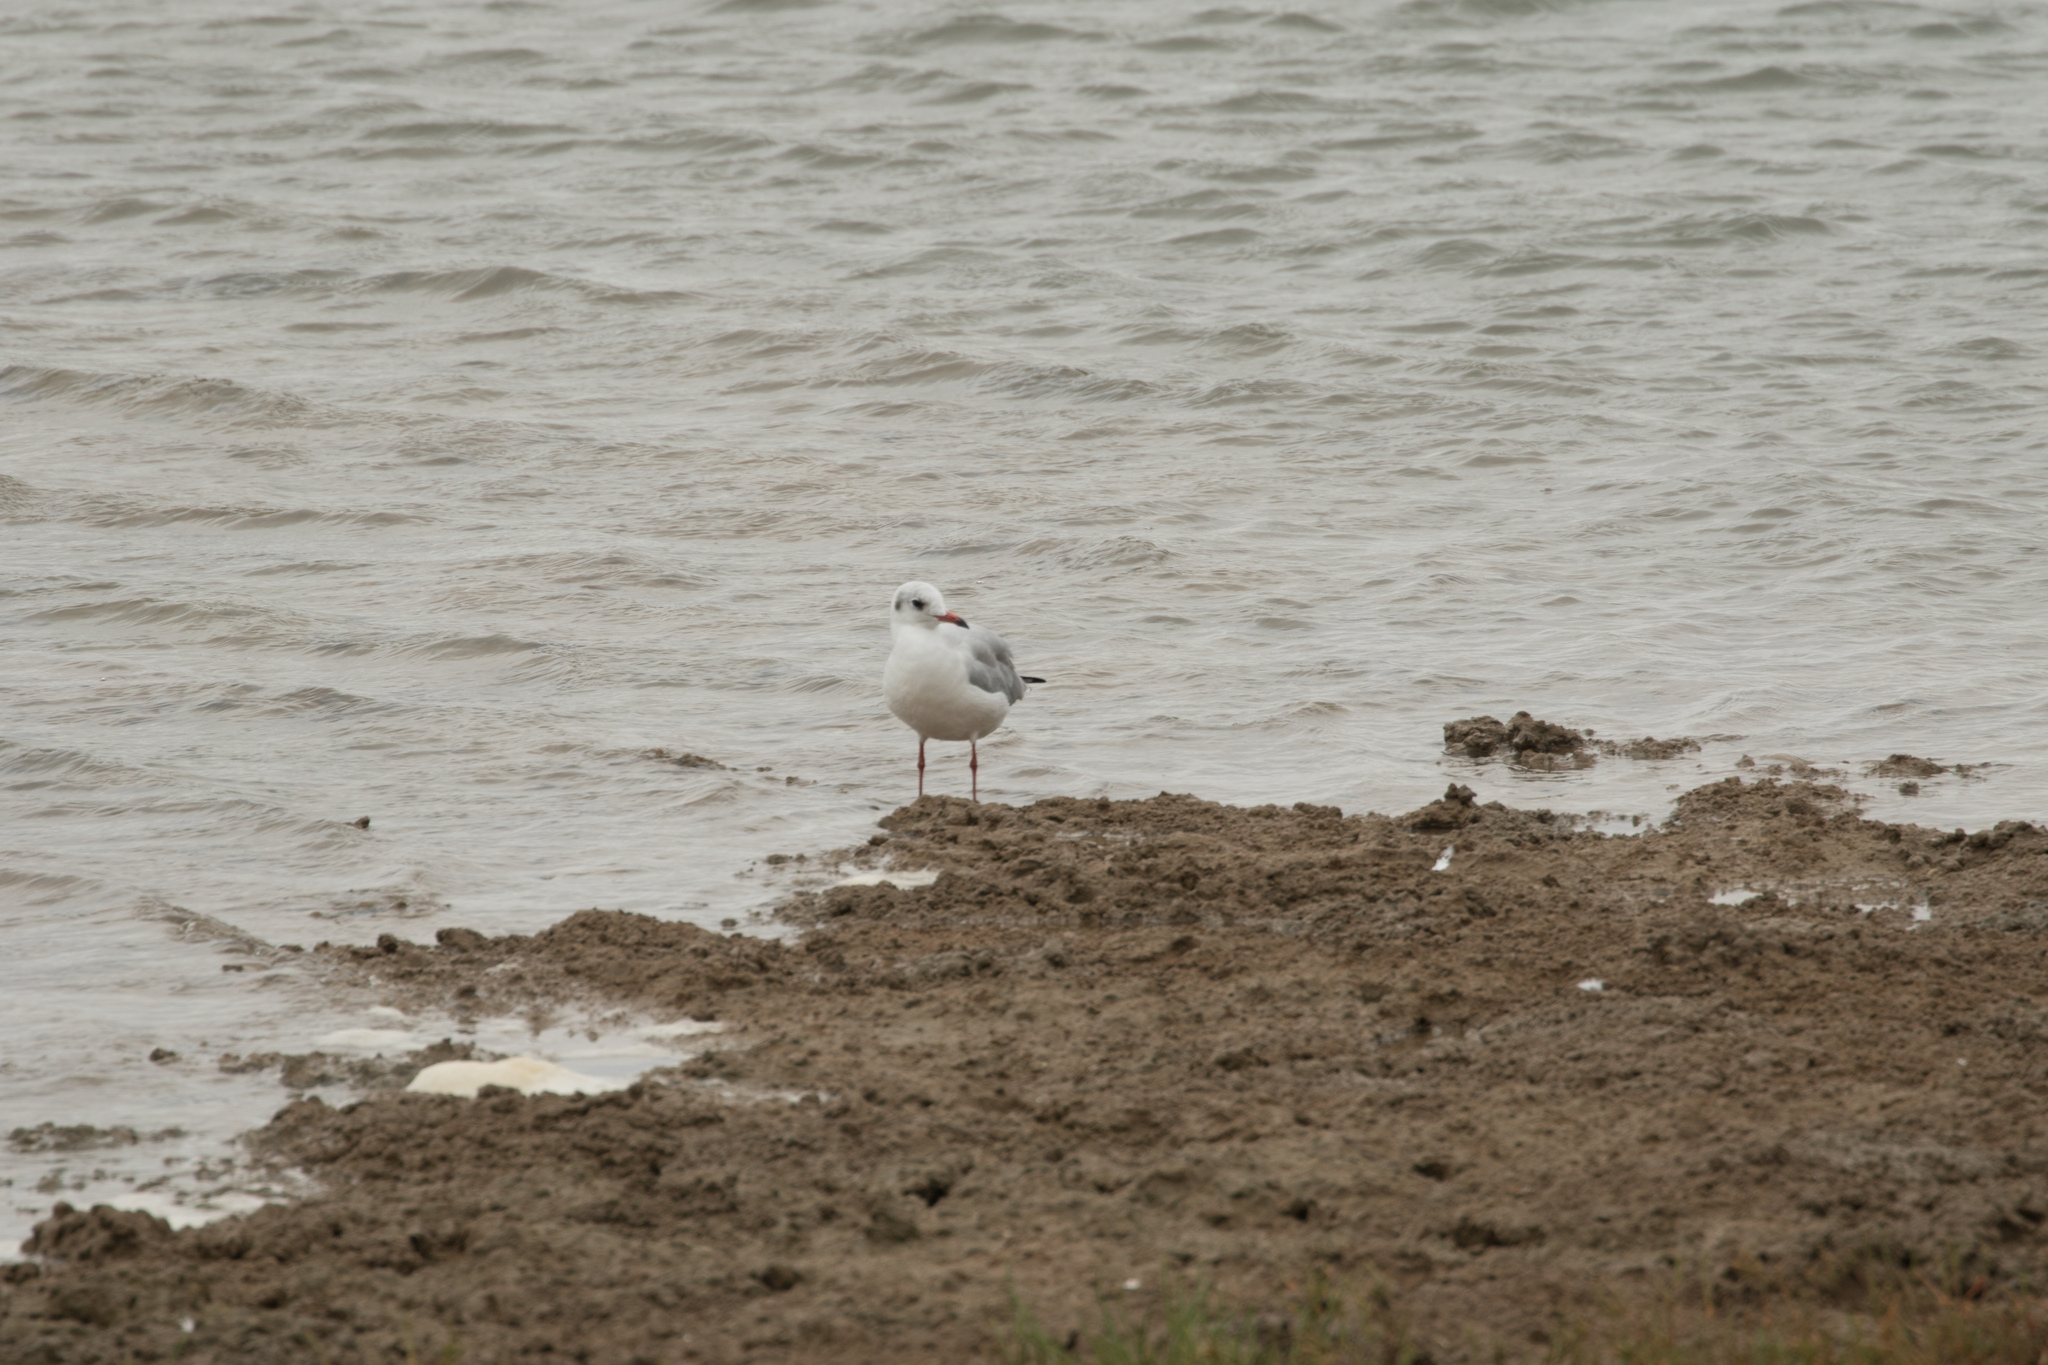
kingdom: Animalia
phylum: Chordata
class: Aves
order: Charadriiformes
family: Laridae
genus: Chroicocephalus
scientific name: Chroicocephalus ridibundus
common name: Black-headed gull
